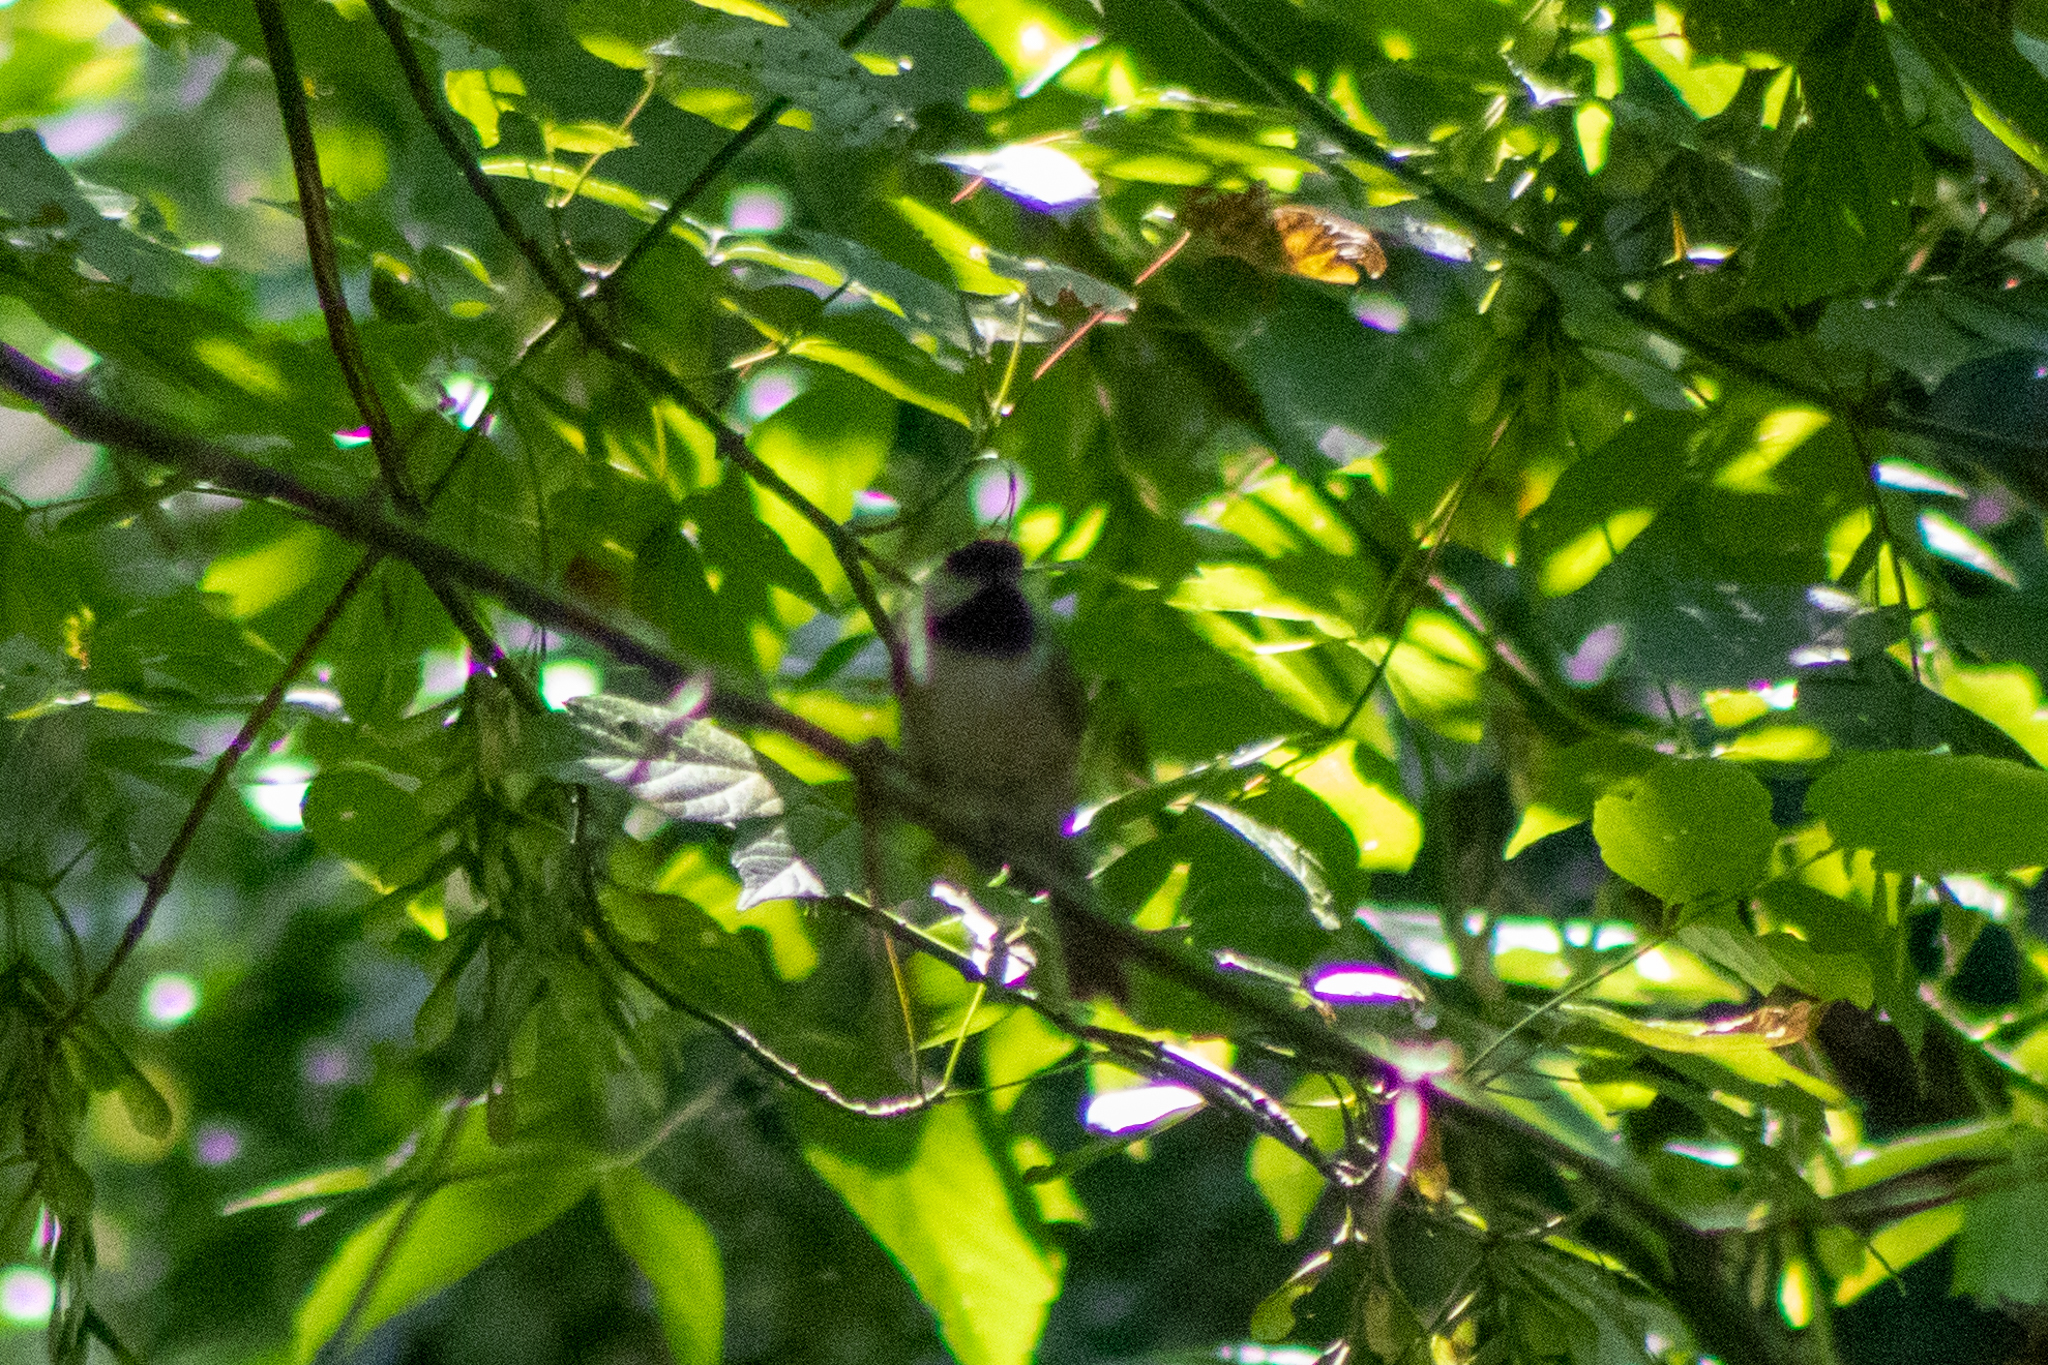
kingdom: Animalia
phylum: Chordata
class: Aves
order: Passeriformes
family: Paridae
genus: Poecile
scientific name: Poecile carolinensis
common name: Carolina chickadee
